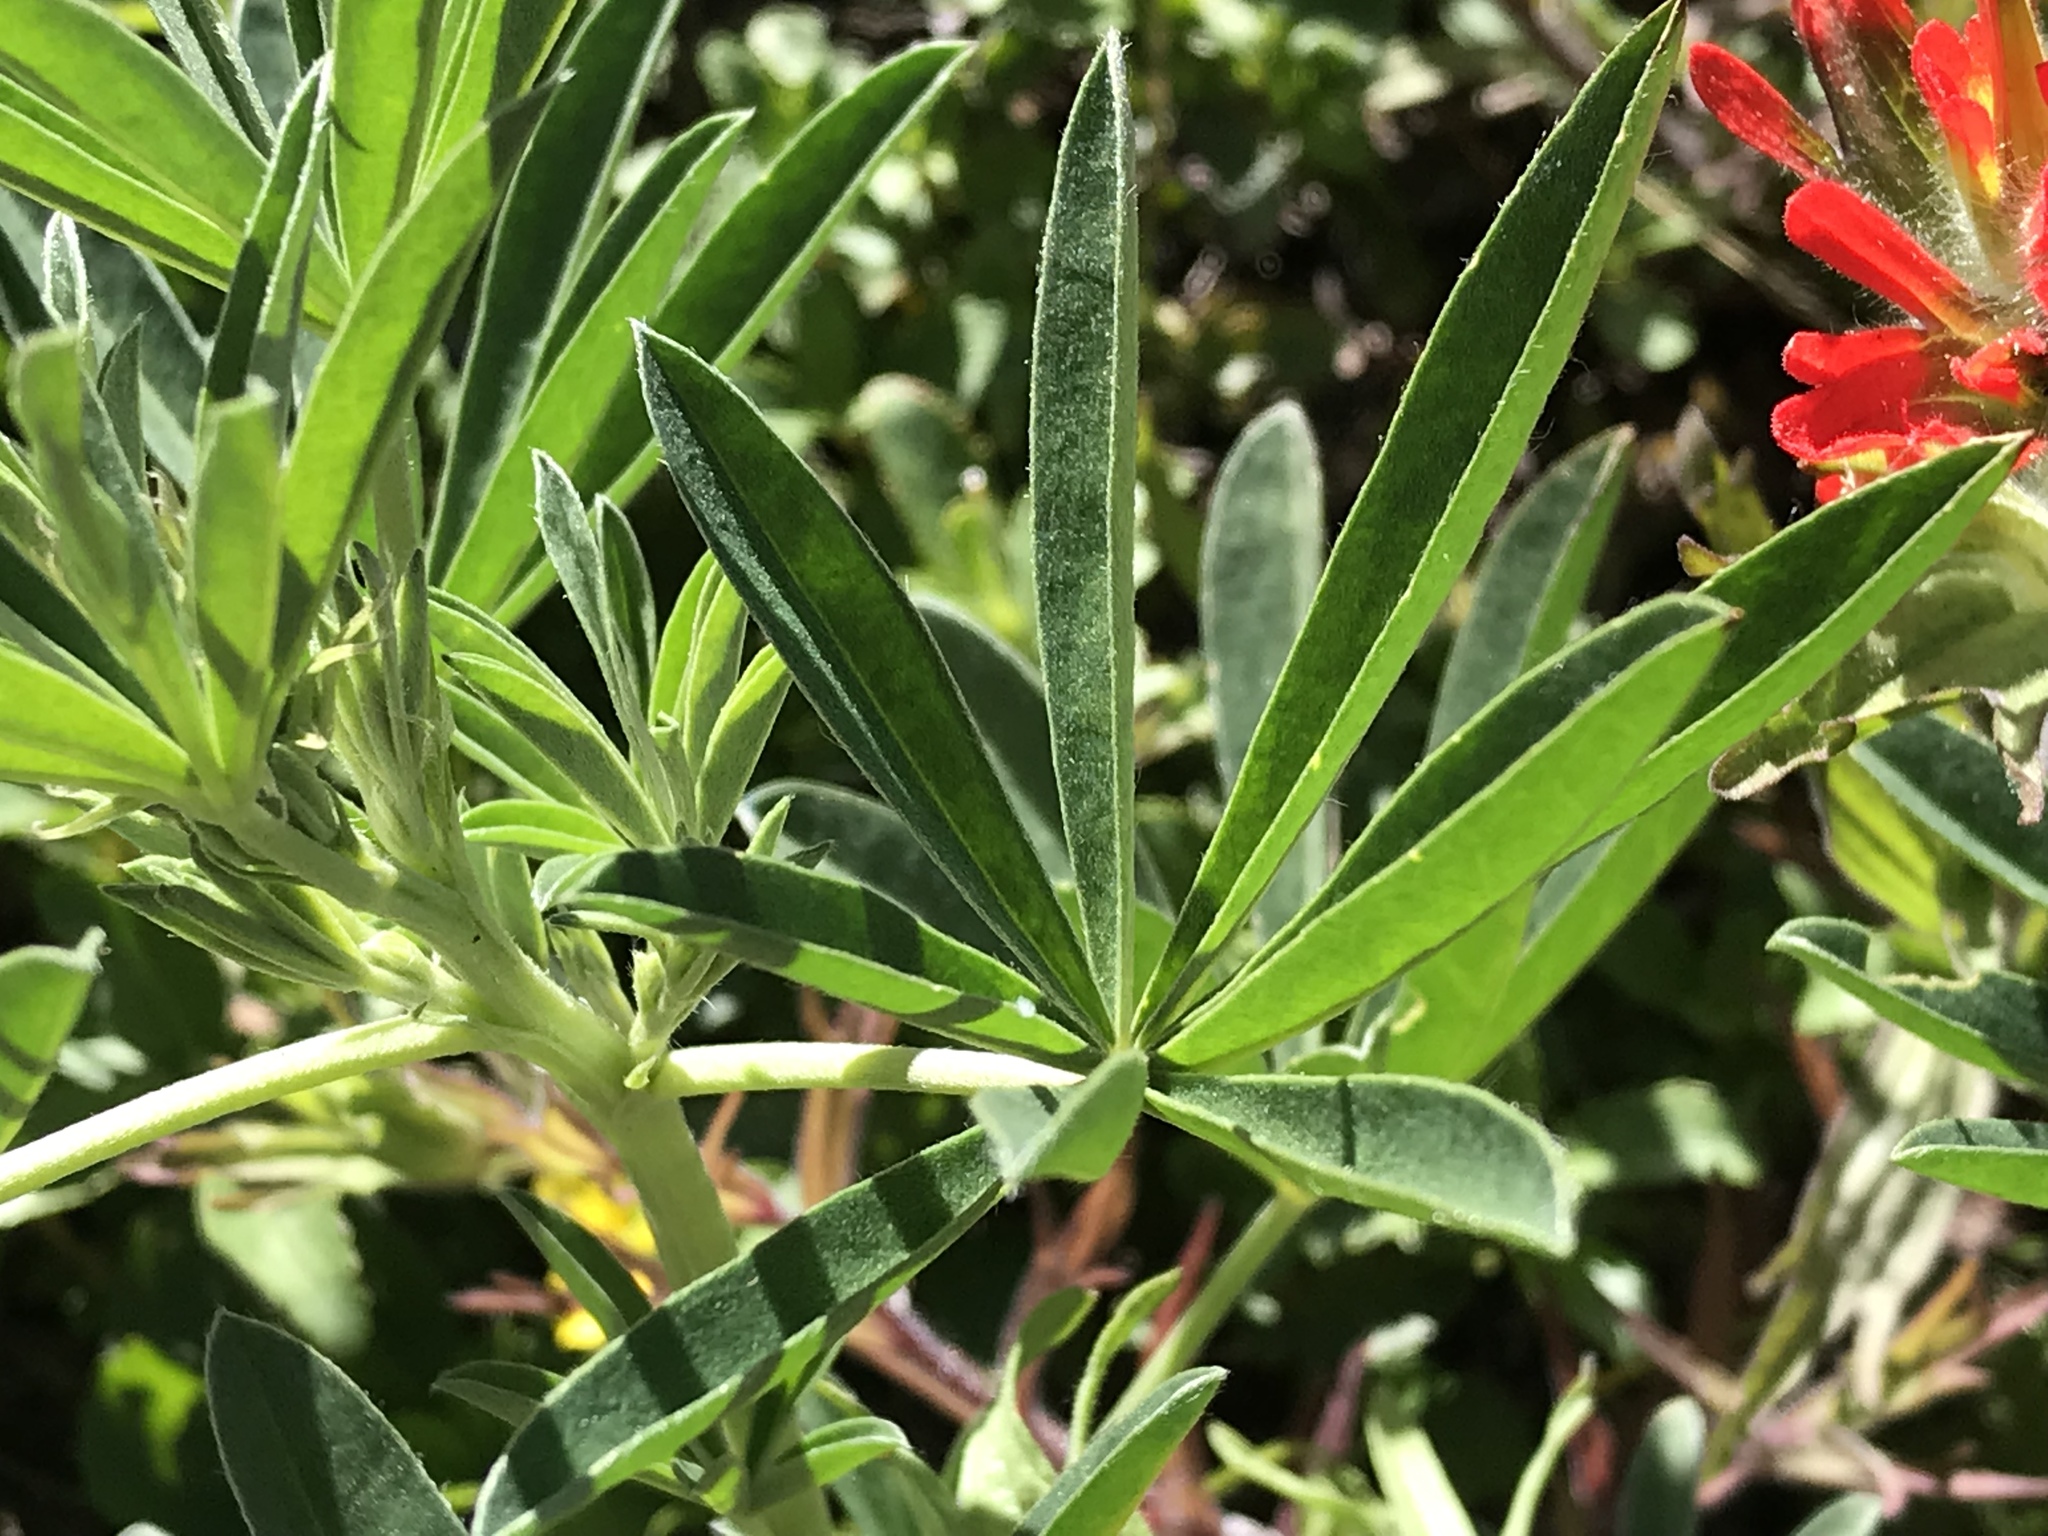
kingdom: Plantae
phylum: Tracheophyta
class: Magnoliopsida
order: Lamiales
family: Orobanchaceae
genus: Castilleja
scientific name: Castilleja hispida
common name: Bristly paintbrush
